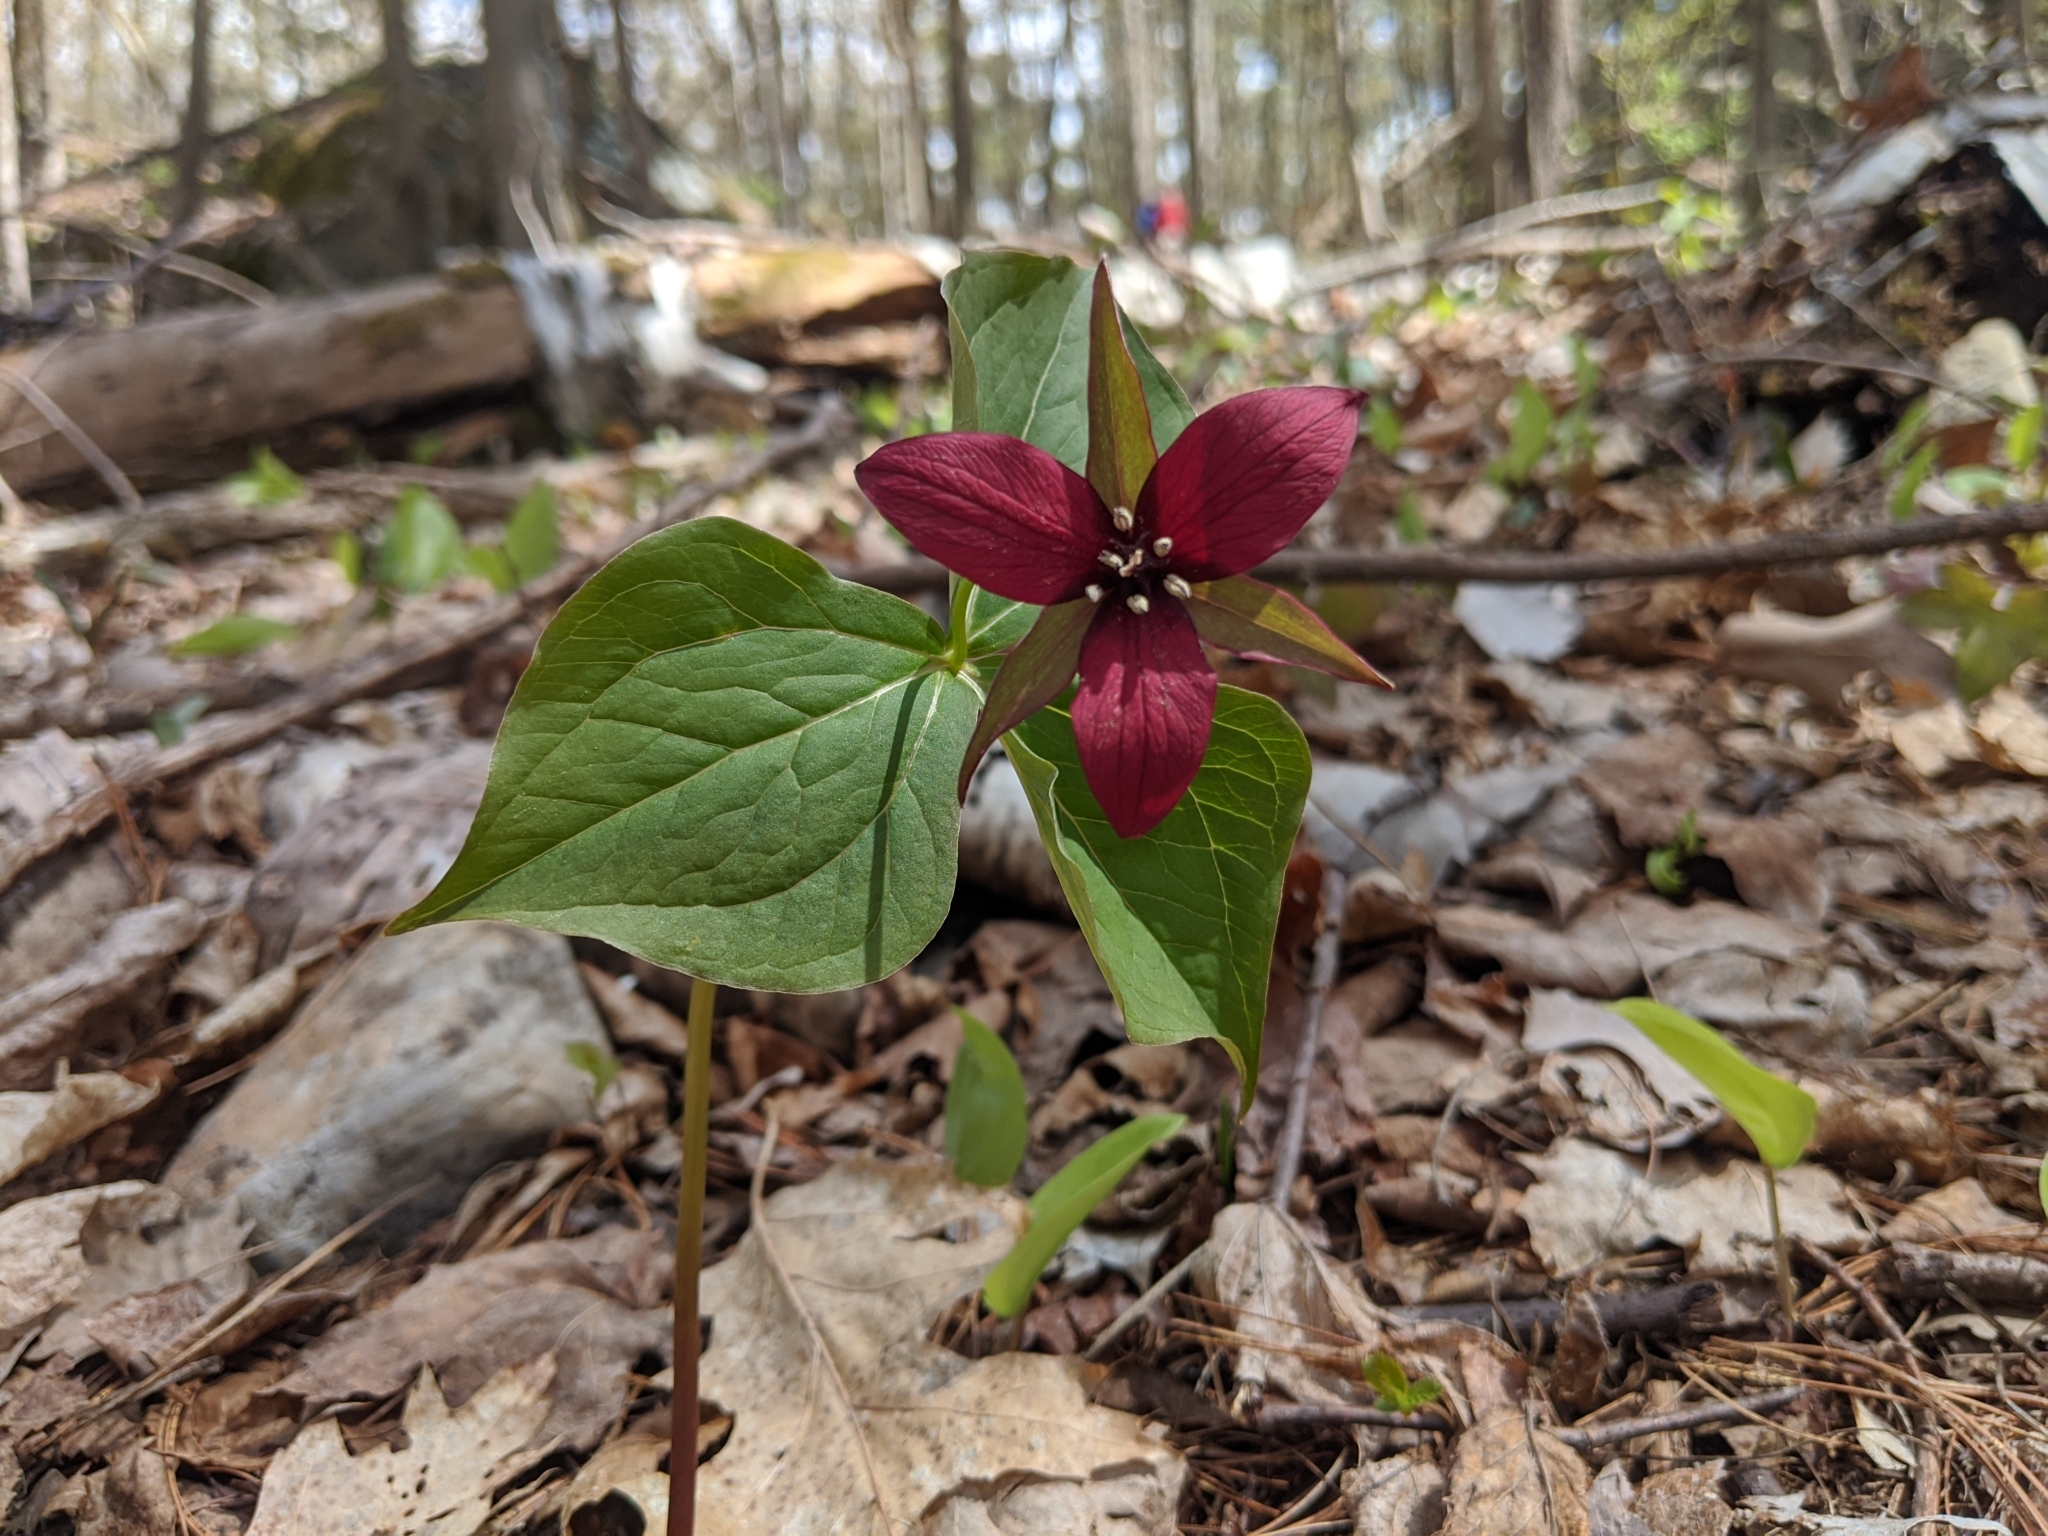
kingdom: Plantae
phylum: Tracheophyta
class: Liliopsida
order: Liliales
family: Melanthiaceae
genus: Trillium
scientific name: Trillium erectum
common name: Purple trillium
